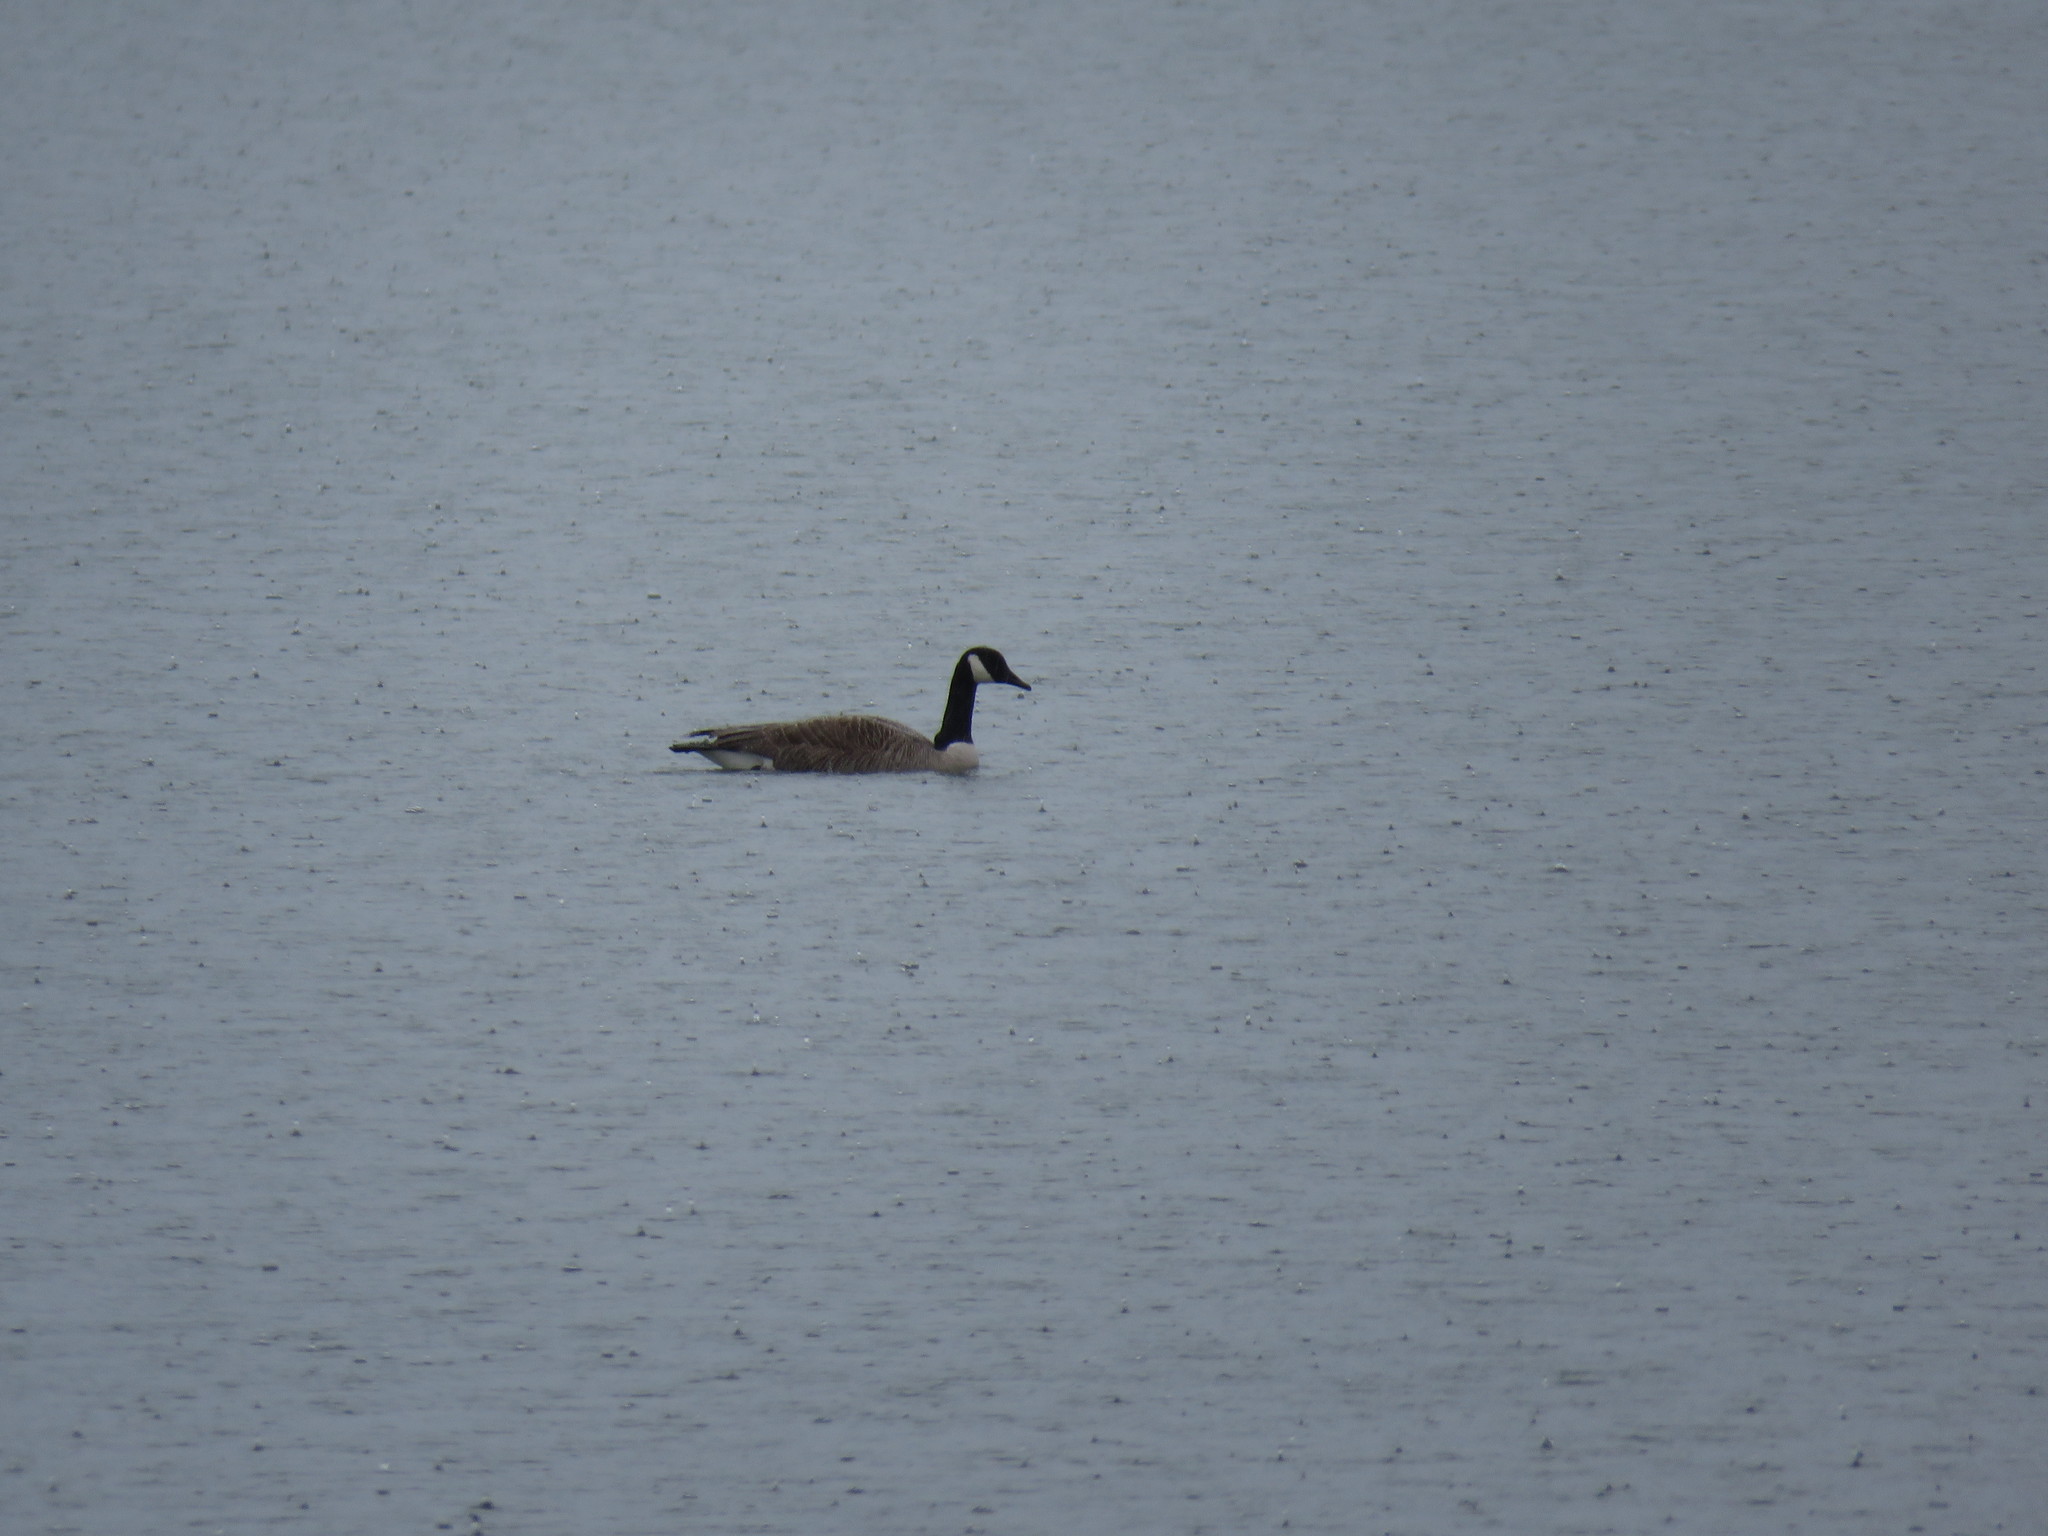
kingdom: Animalia
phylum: Chordata
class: Aves
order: Anseriformes
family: Anatidae
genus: Branta
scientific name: Branta canadensis
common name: Canada goose
